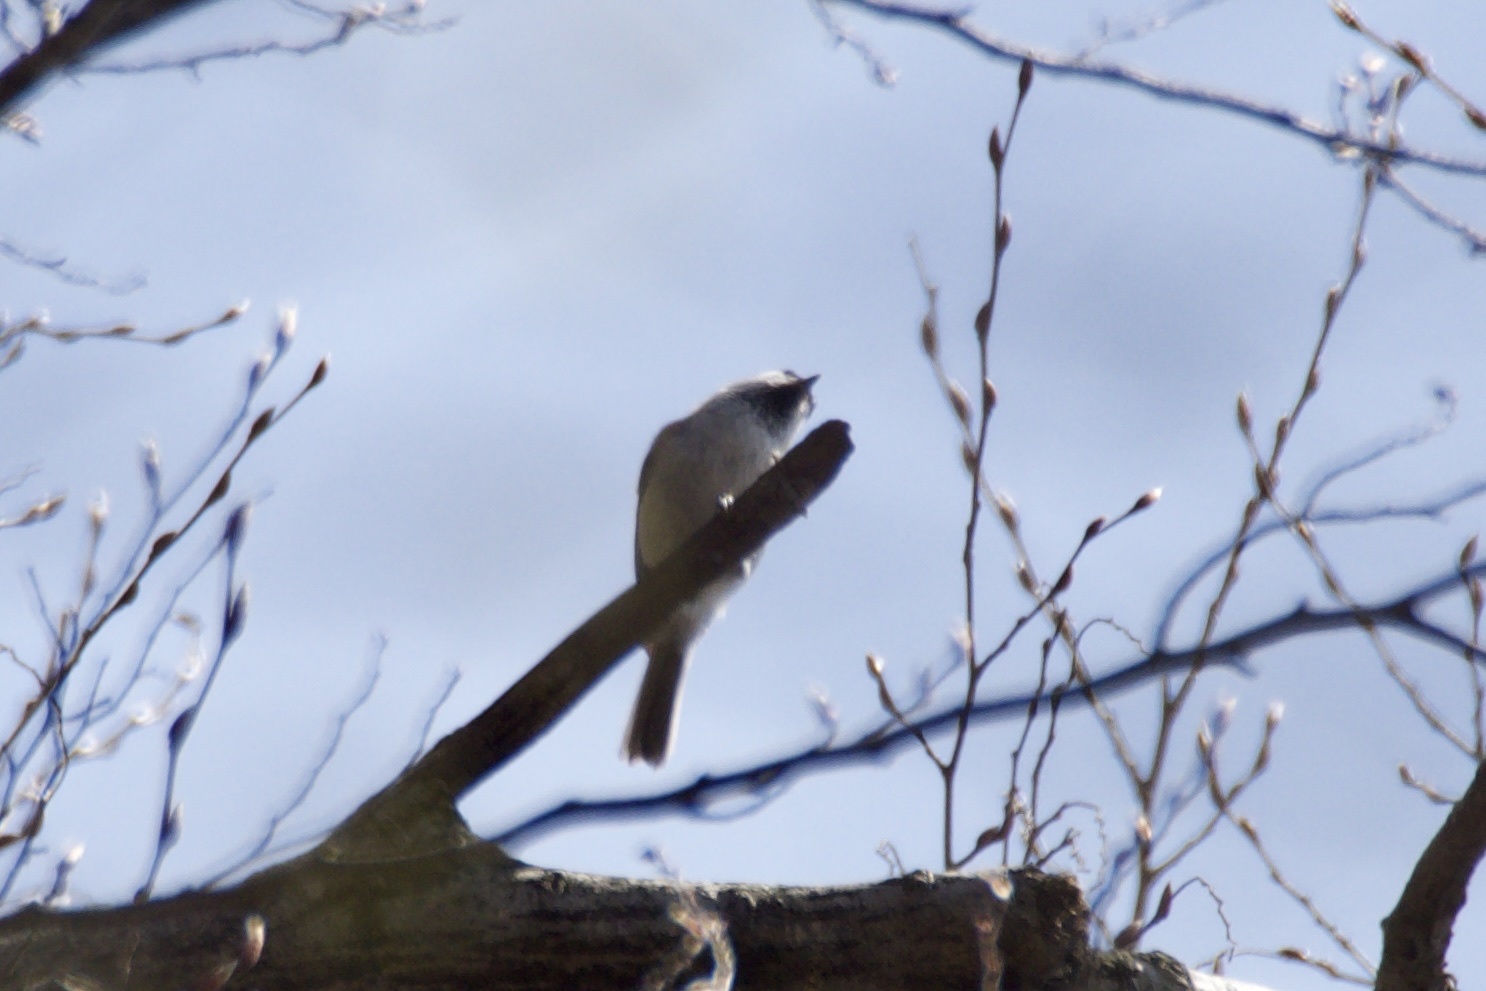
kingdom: Animalia
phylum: Chordata
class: Aves
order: Passeriformes
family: Paridae
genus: Poecile
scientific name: Poecile montanus
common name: Willow tit
